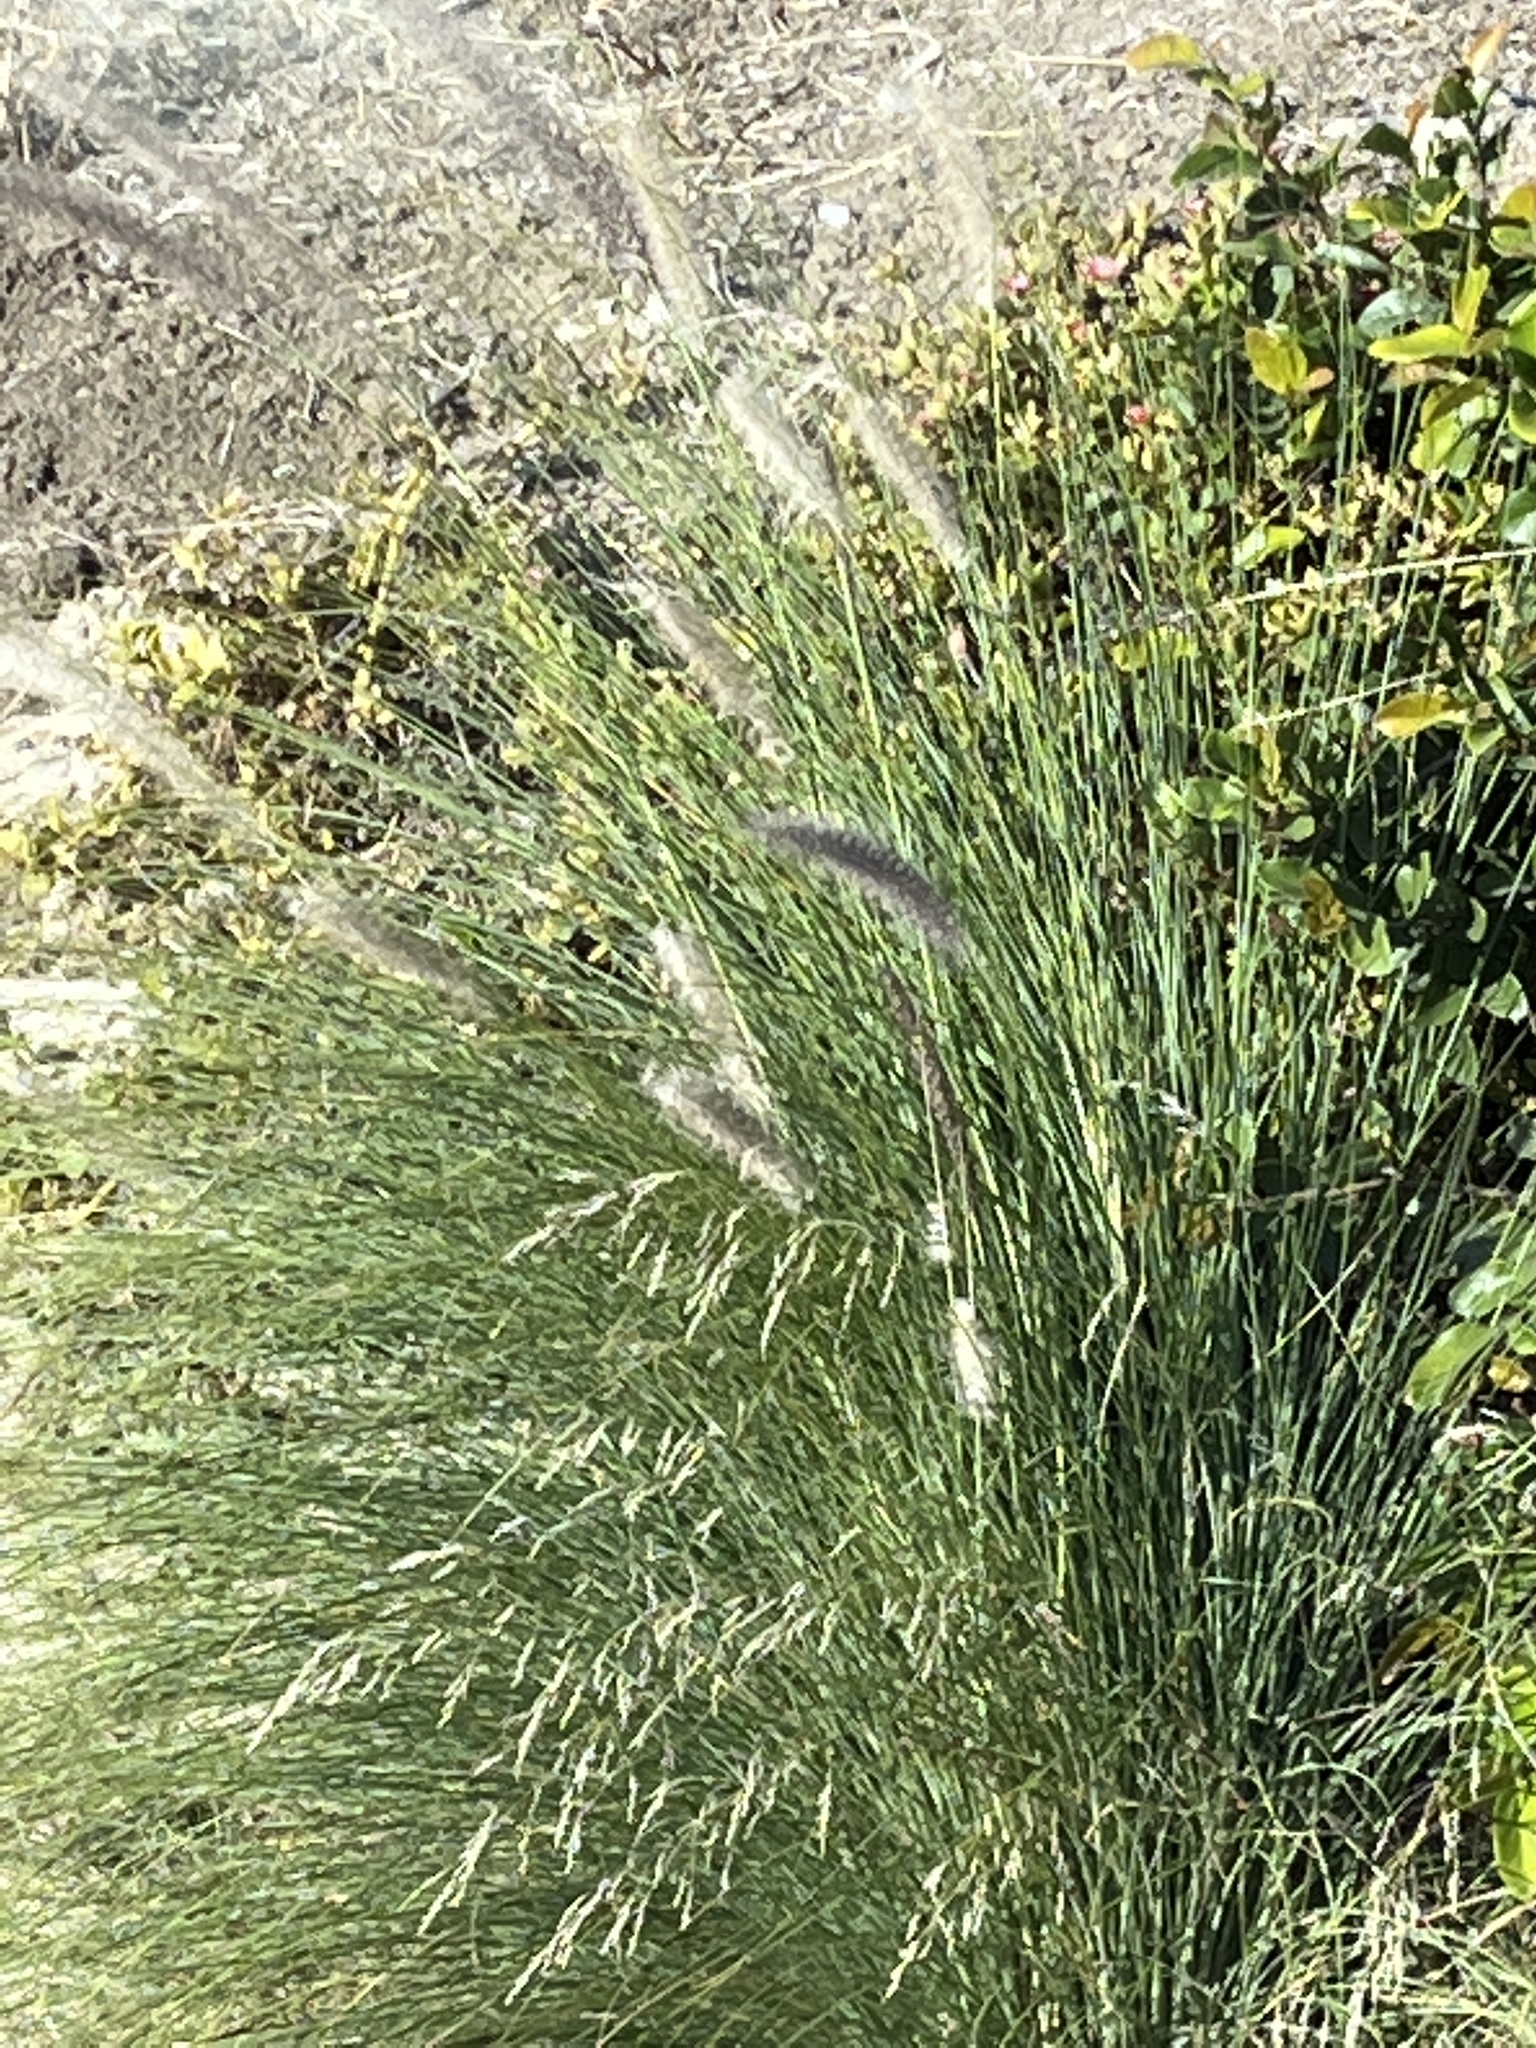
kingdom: Plantae
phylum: Tracheophyta
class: Liliopsida
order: Poales
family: Poaceae
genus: Cenchrus
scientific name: Cenchrus setaceus
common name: Crimson fountaingrass
